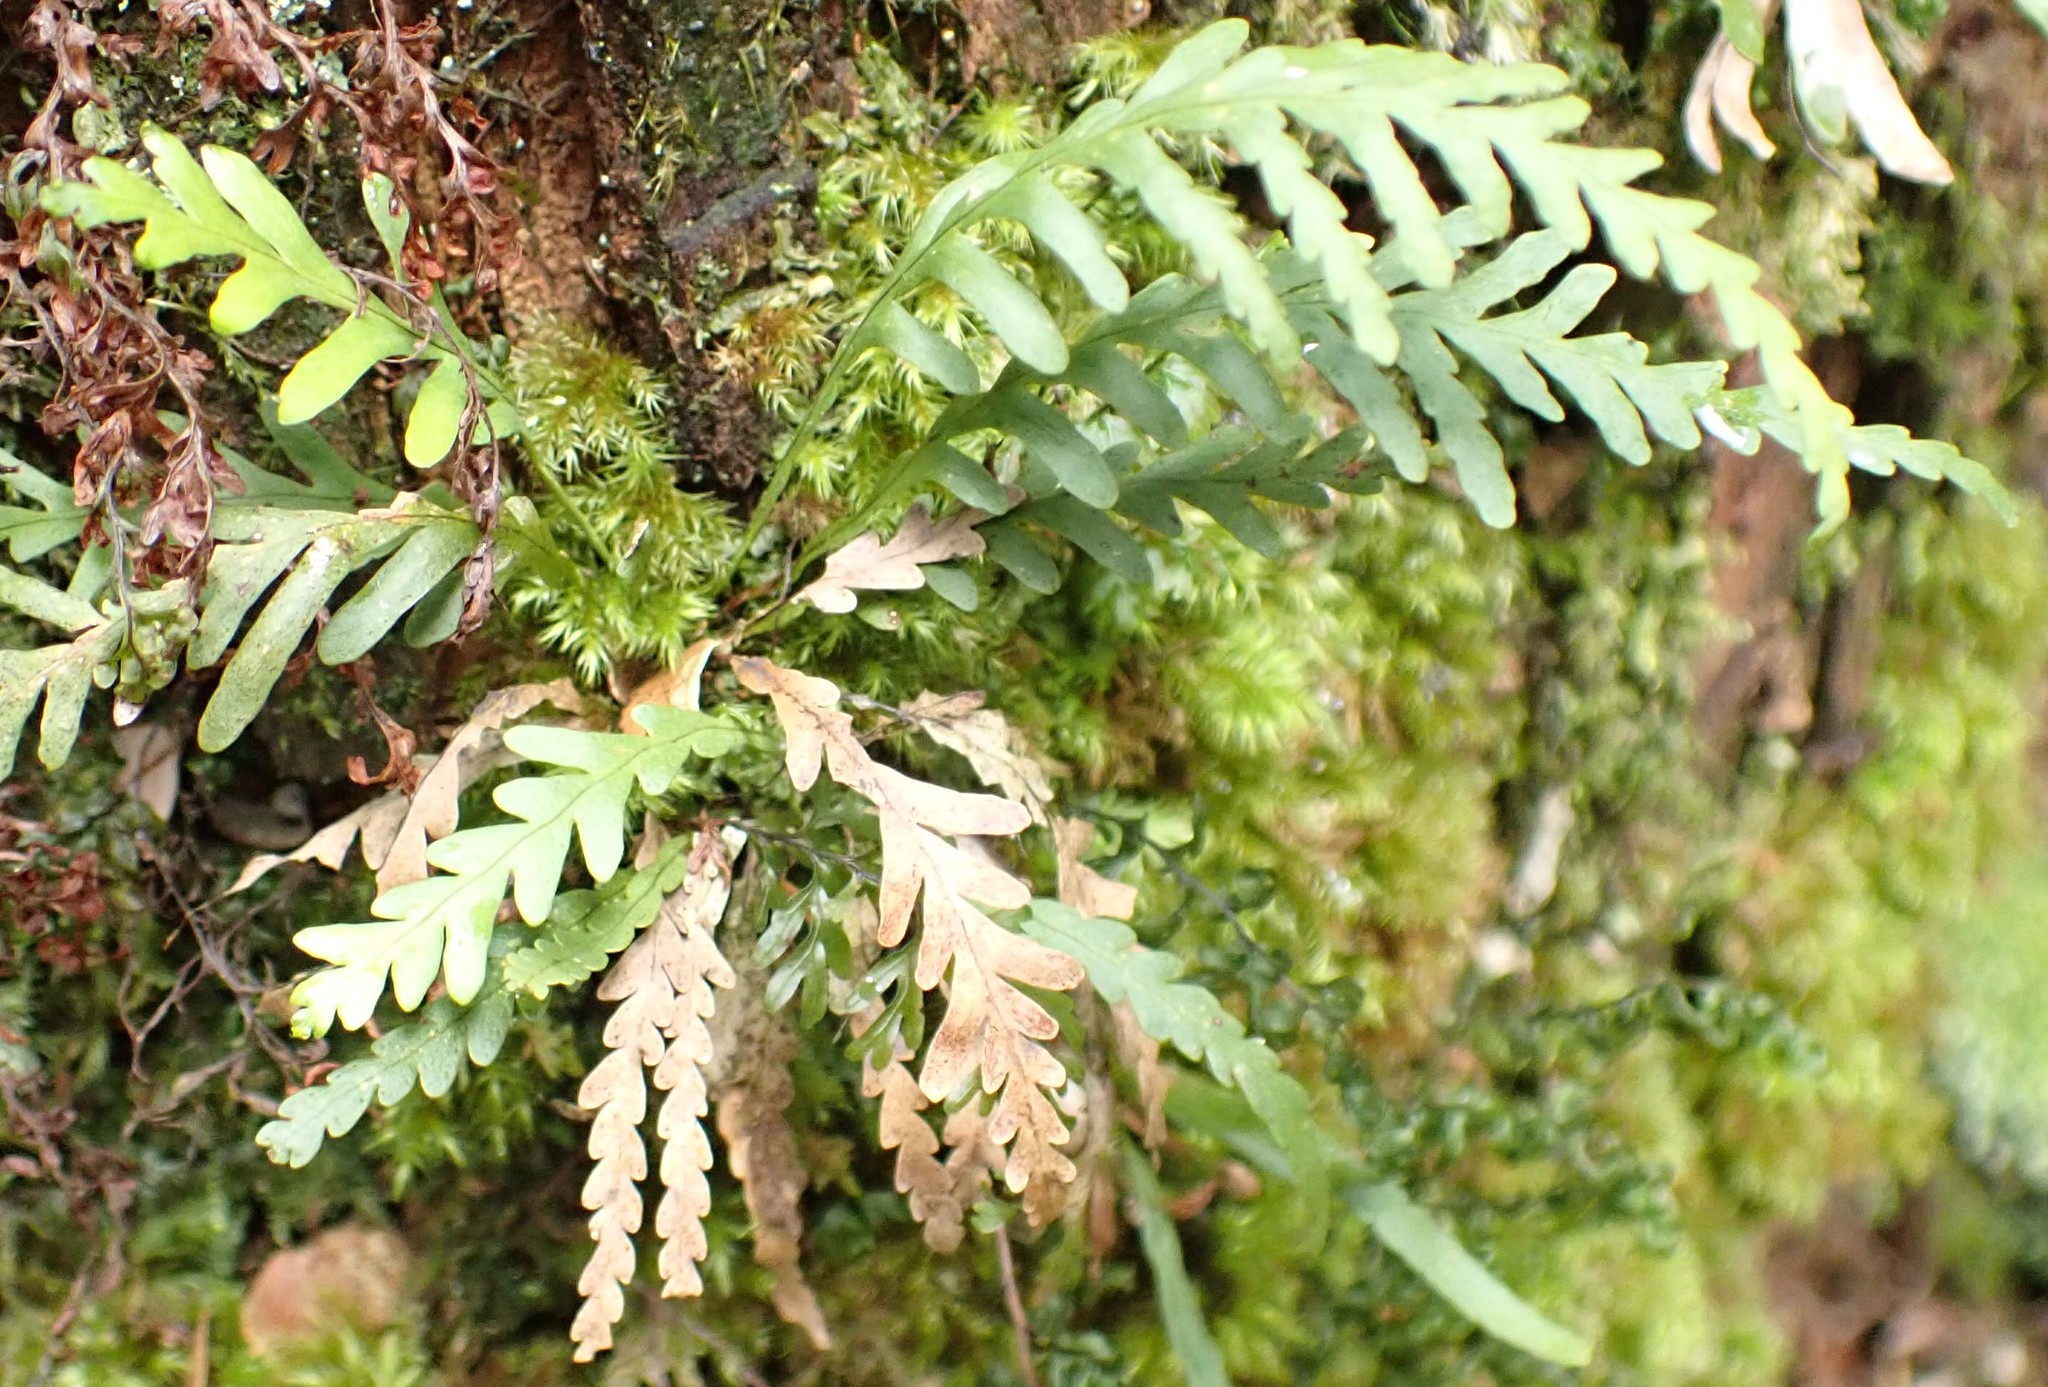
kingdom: Plantae
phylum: Tracheophyta
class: Polypodiopsida
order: Polypodiales
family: Polypodiaceae
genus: Notogrammitis
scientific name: Notogrammitis heterophylla
